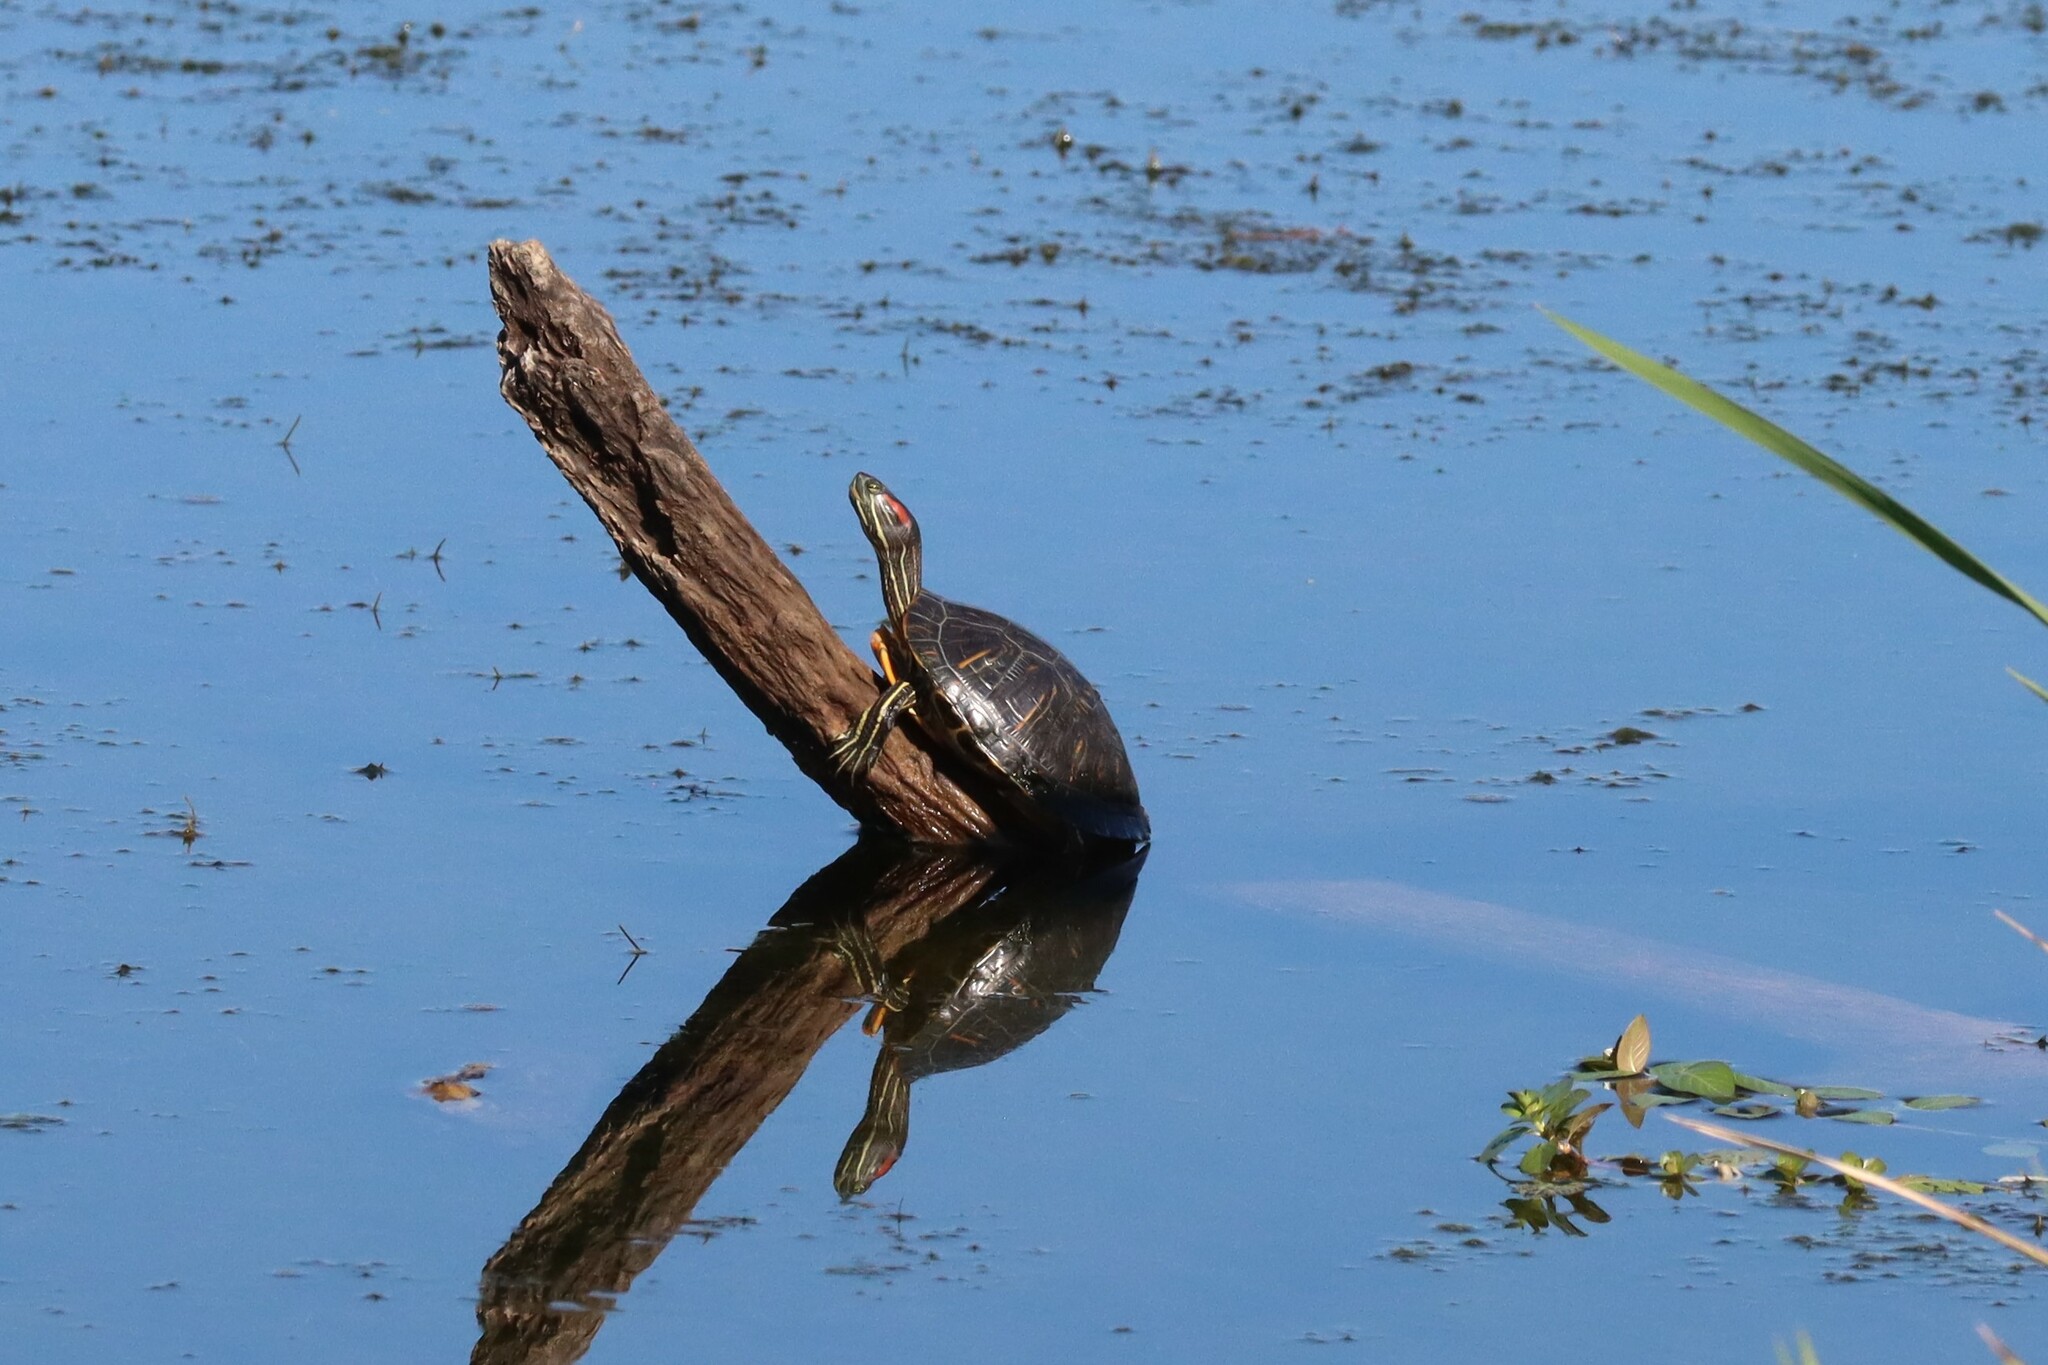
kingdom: Animalia
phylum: Chordata
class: Testudines
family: Emydidae
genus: Trachemys
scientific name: Trachemys scripta
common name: Slider
